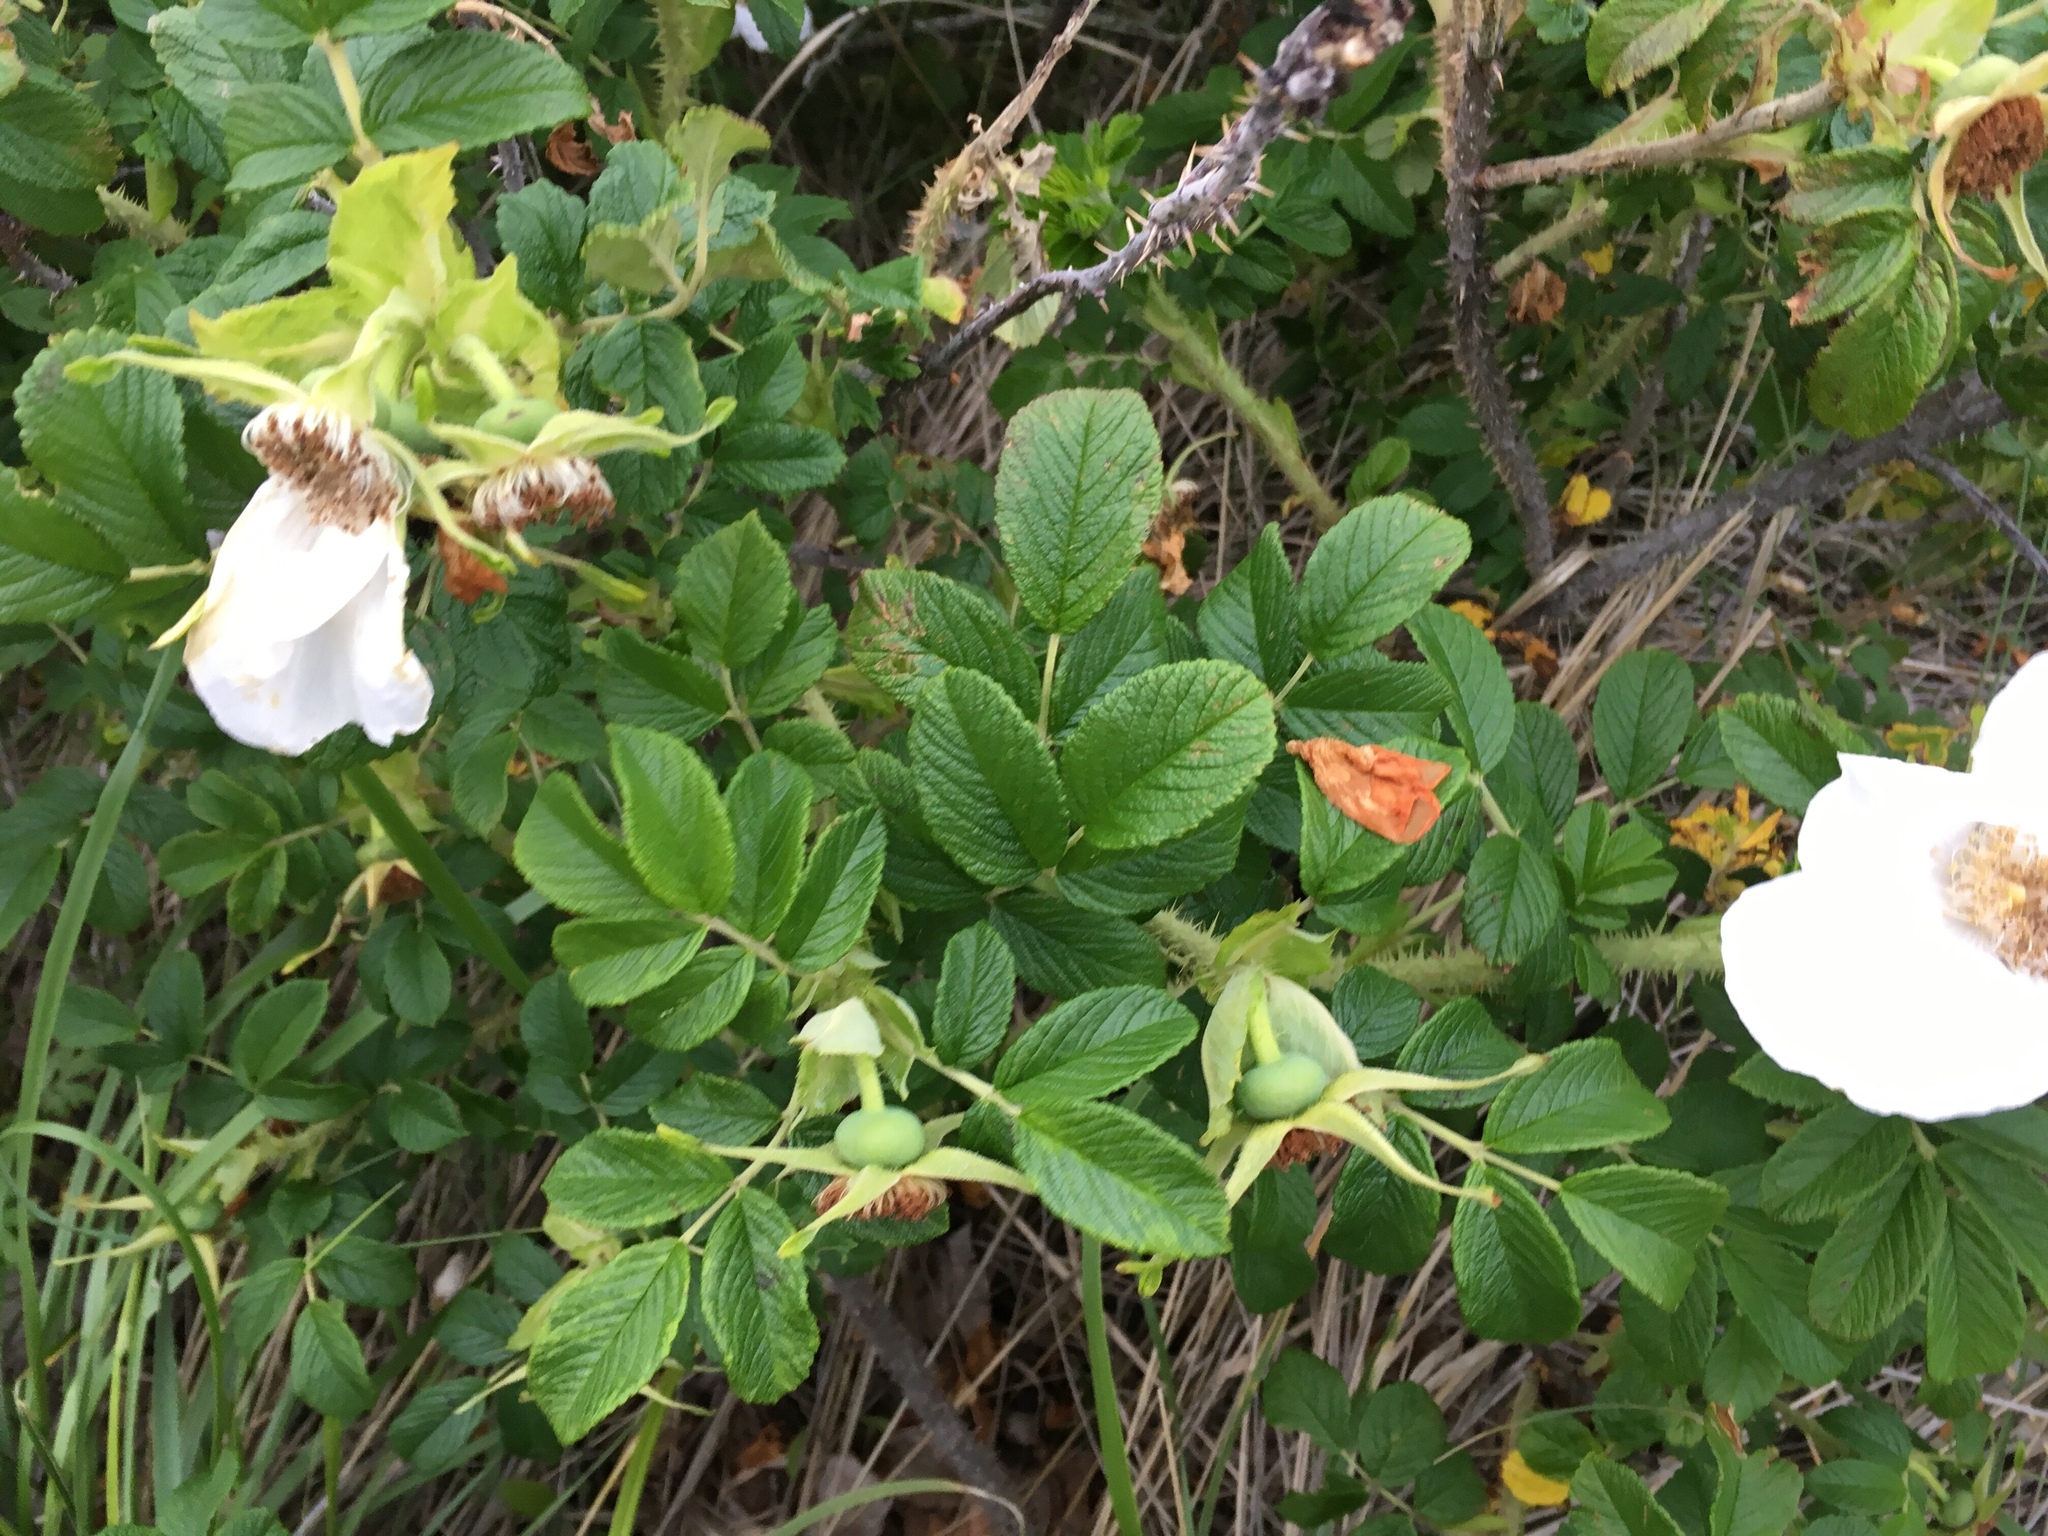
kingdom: Plantae
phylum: Tracheophyta
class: Magnoliopsida
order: Rosales
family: Rosaceae
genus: Rosa
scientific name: Rosa rugosa
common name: Japanese rose
